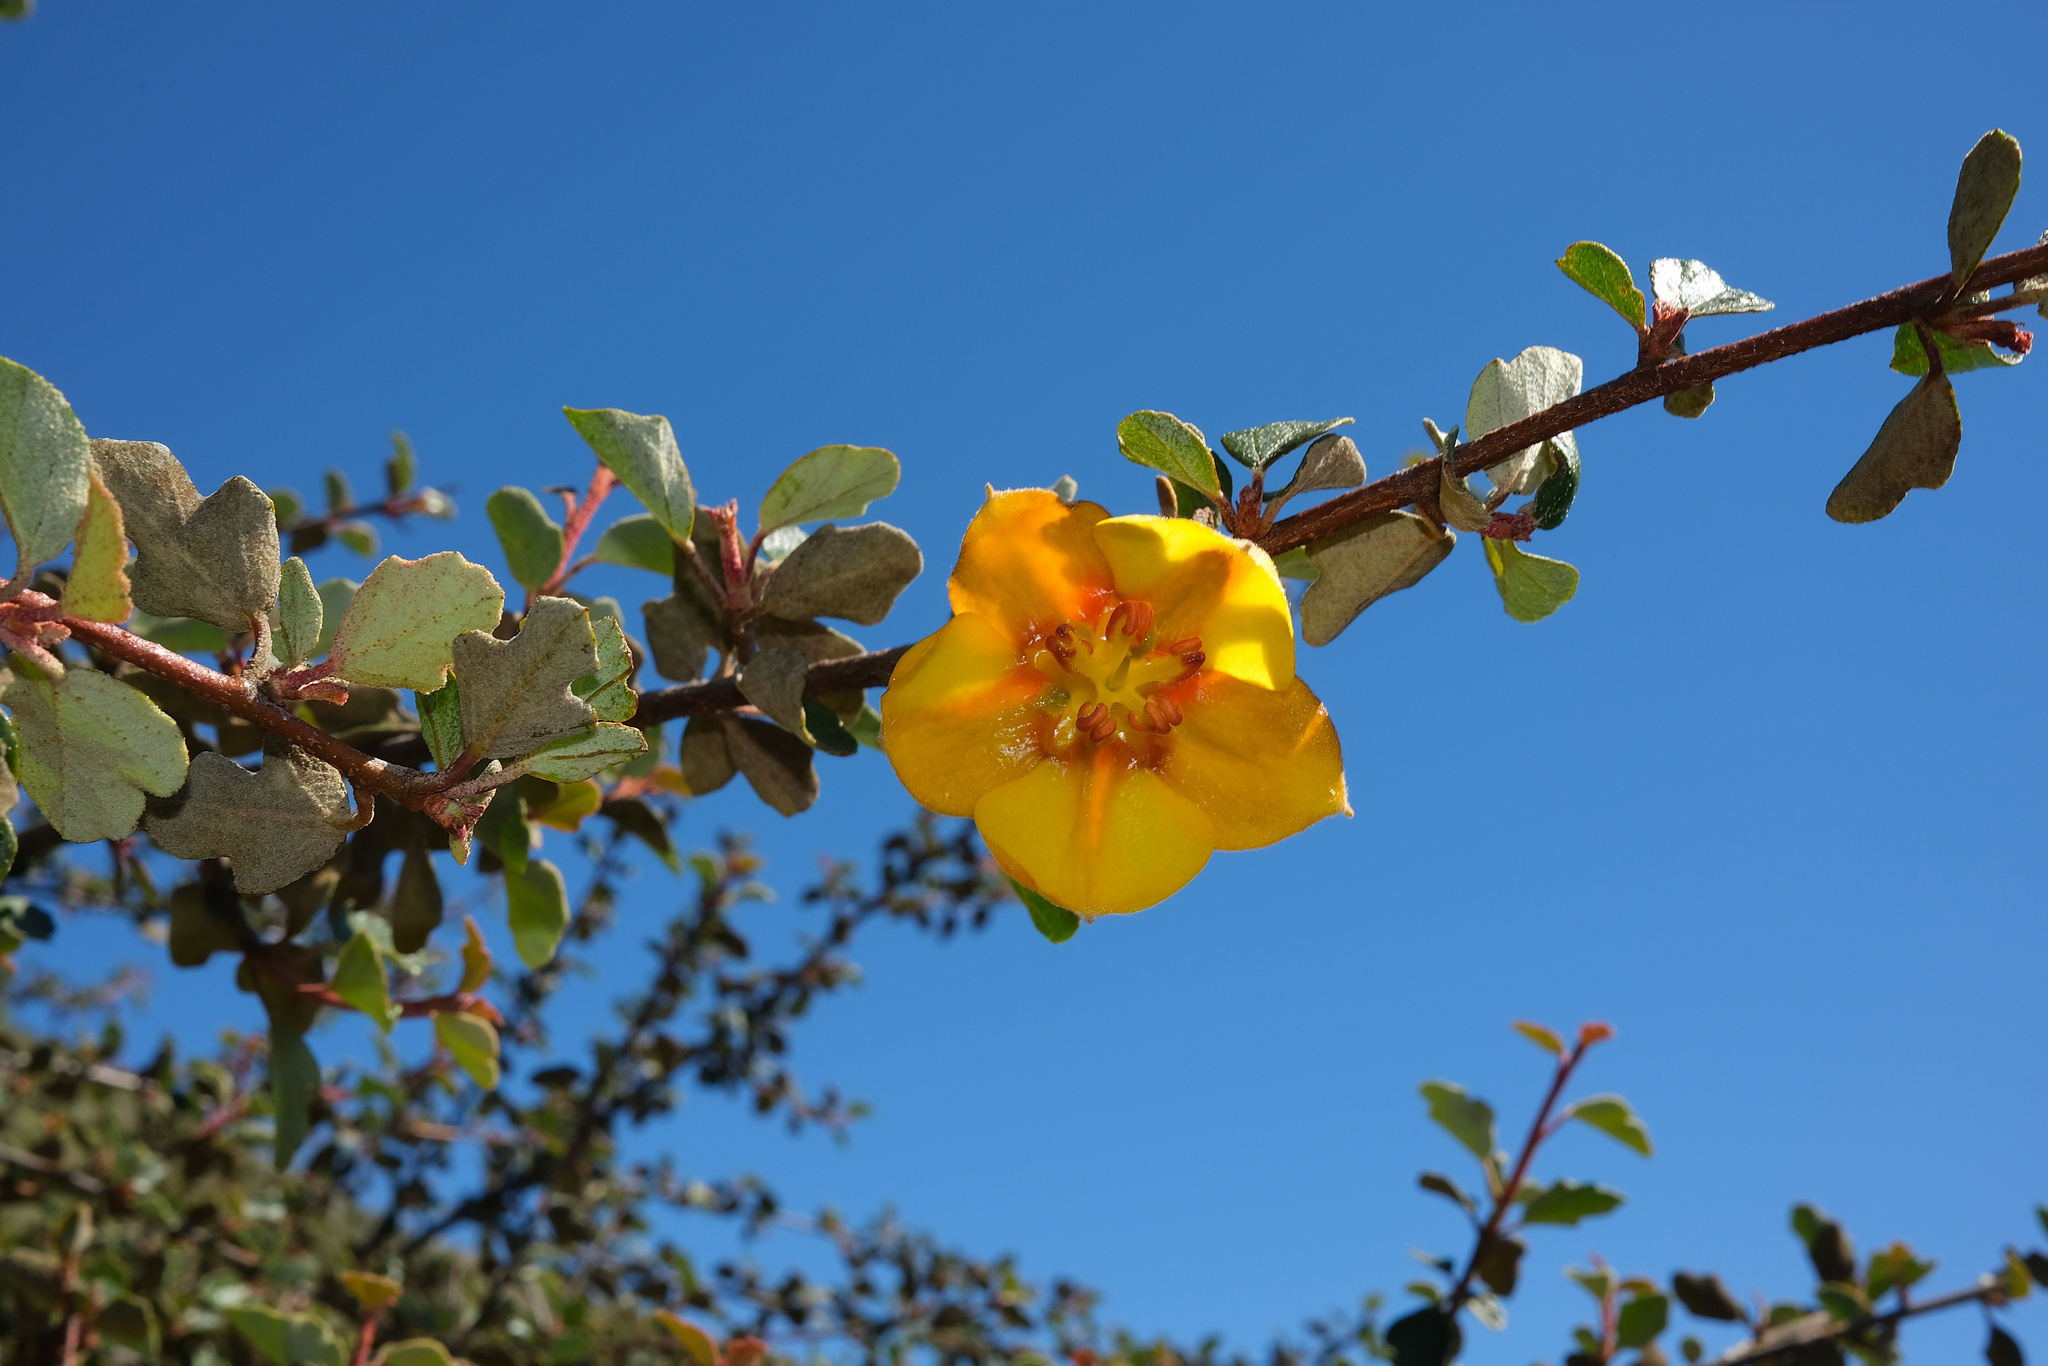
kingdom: Plantae
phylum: Tracheophyta
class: Magnoliopsida
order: Malvales
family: Malvaceae
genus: Fremontodendron
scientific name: Fremontodendron californicum
